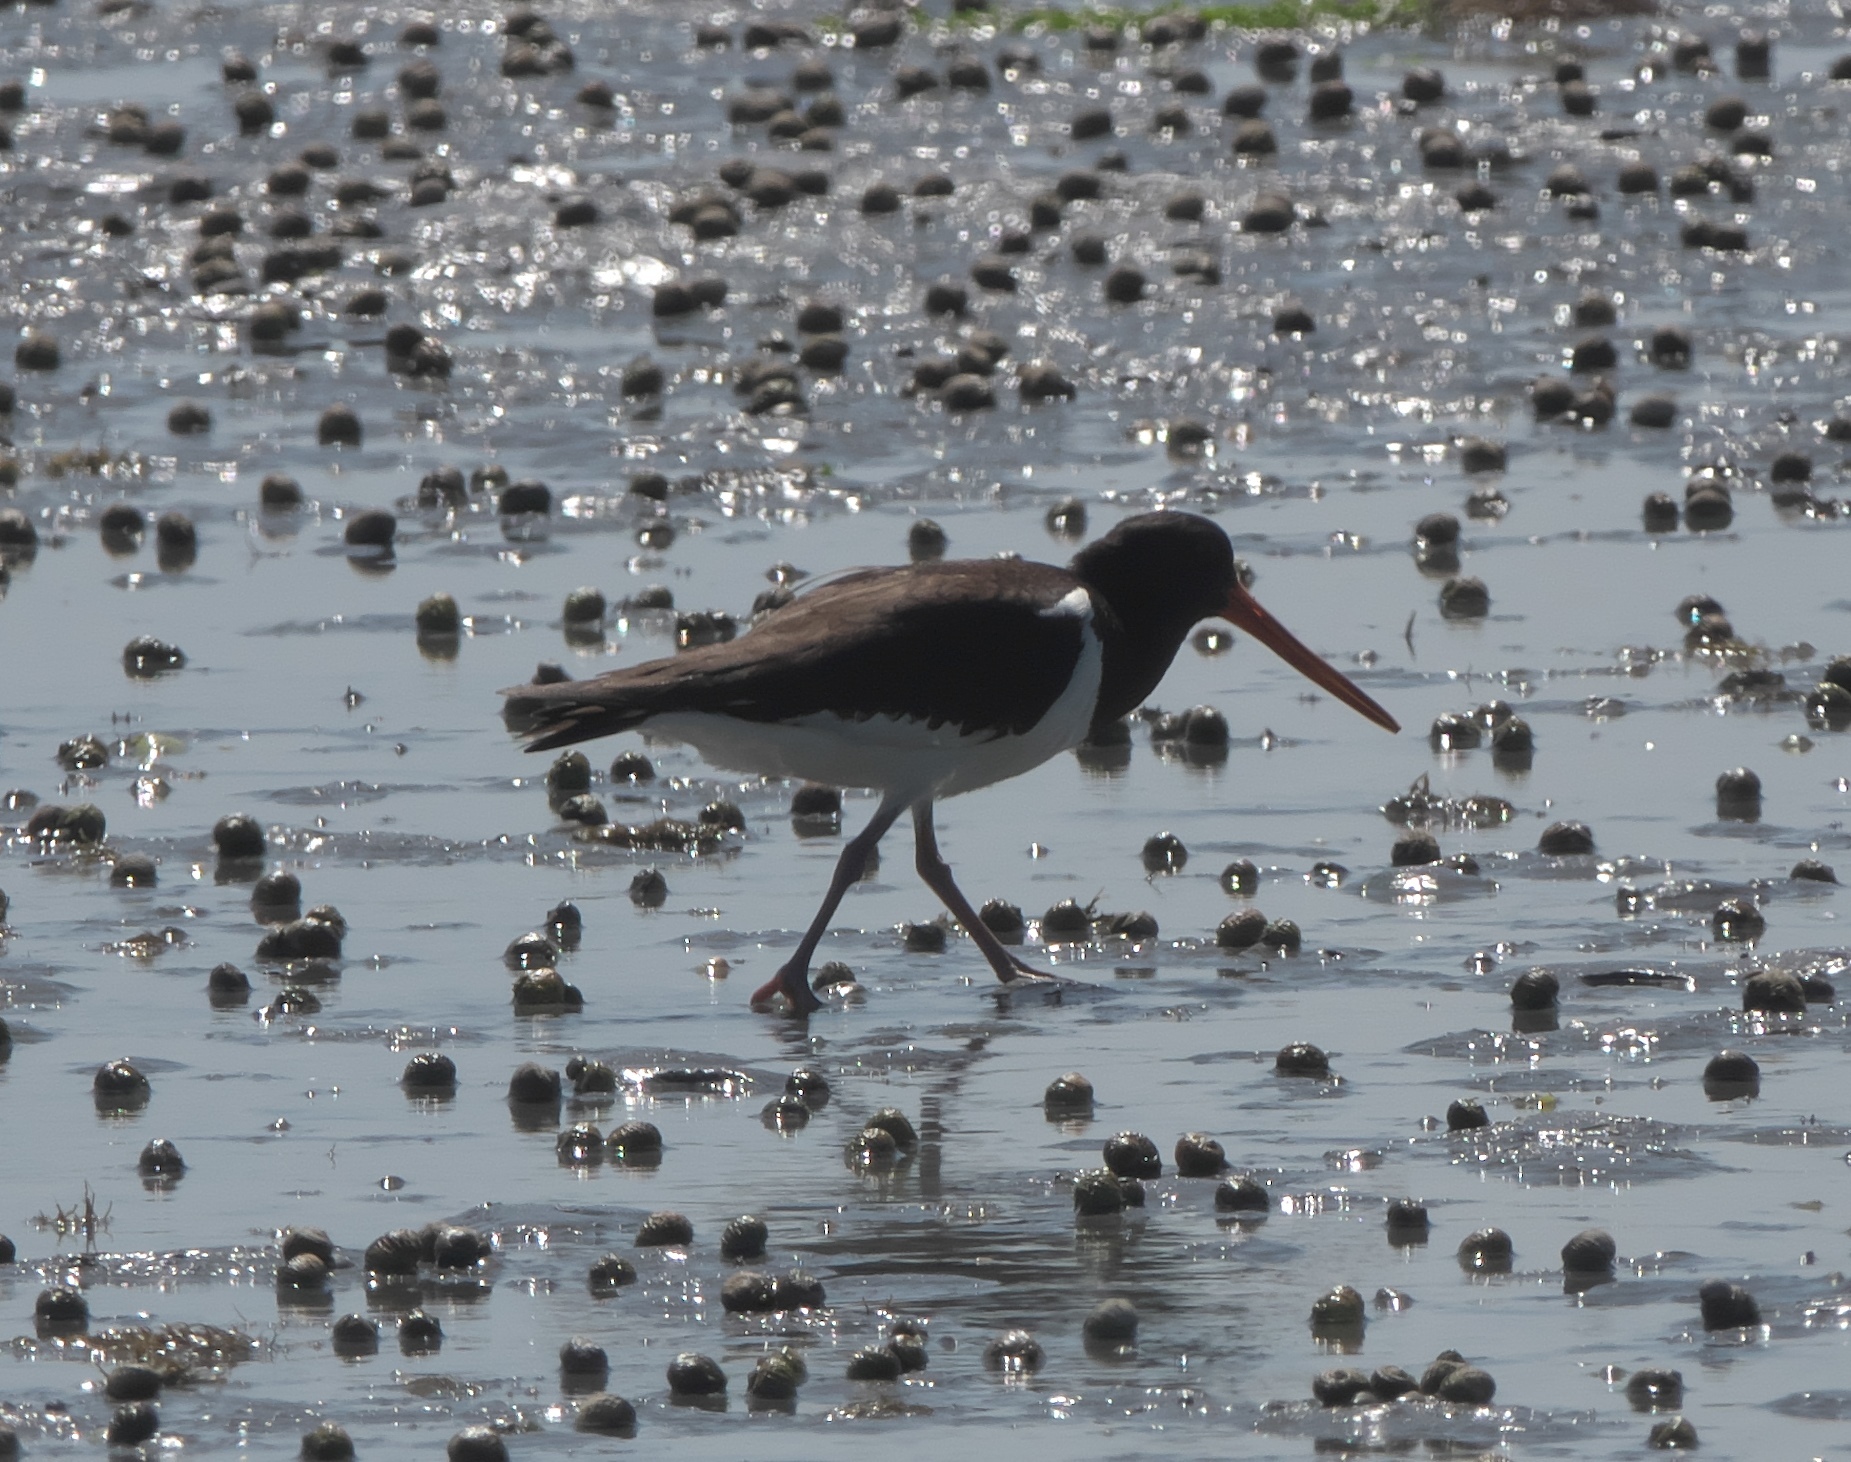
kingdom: Animalia
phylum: Chordata
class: Aves
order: Charadriiformes
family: Haematopodidae
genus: Haematopus
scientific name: Haematopus finschi
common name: South island oystercatcher
